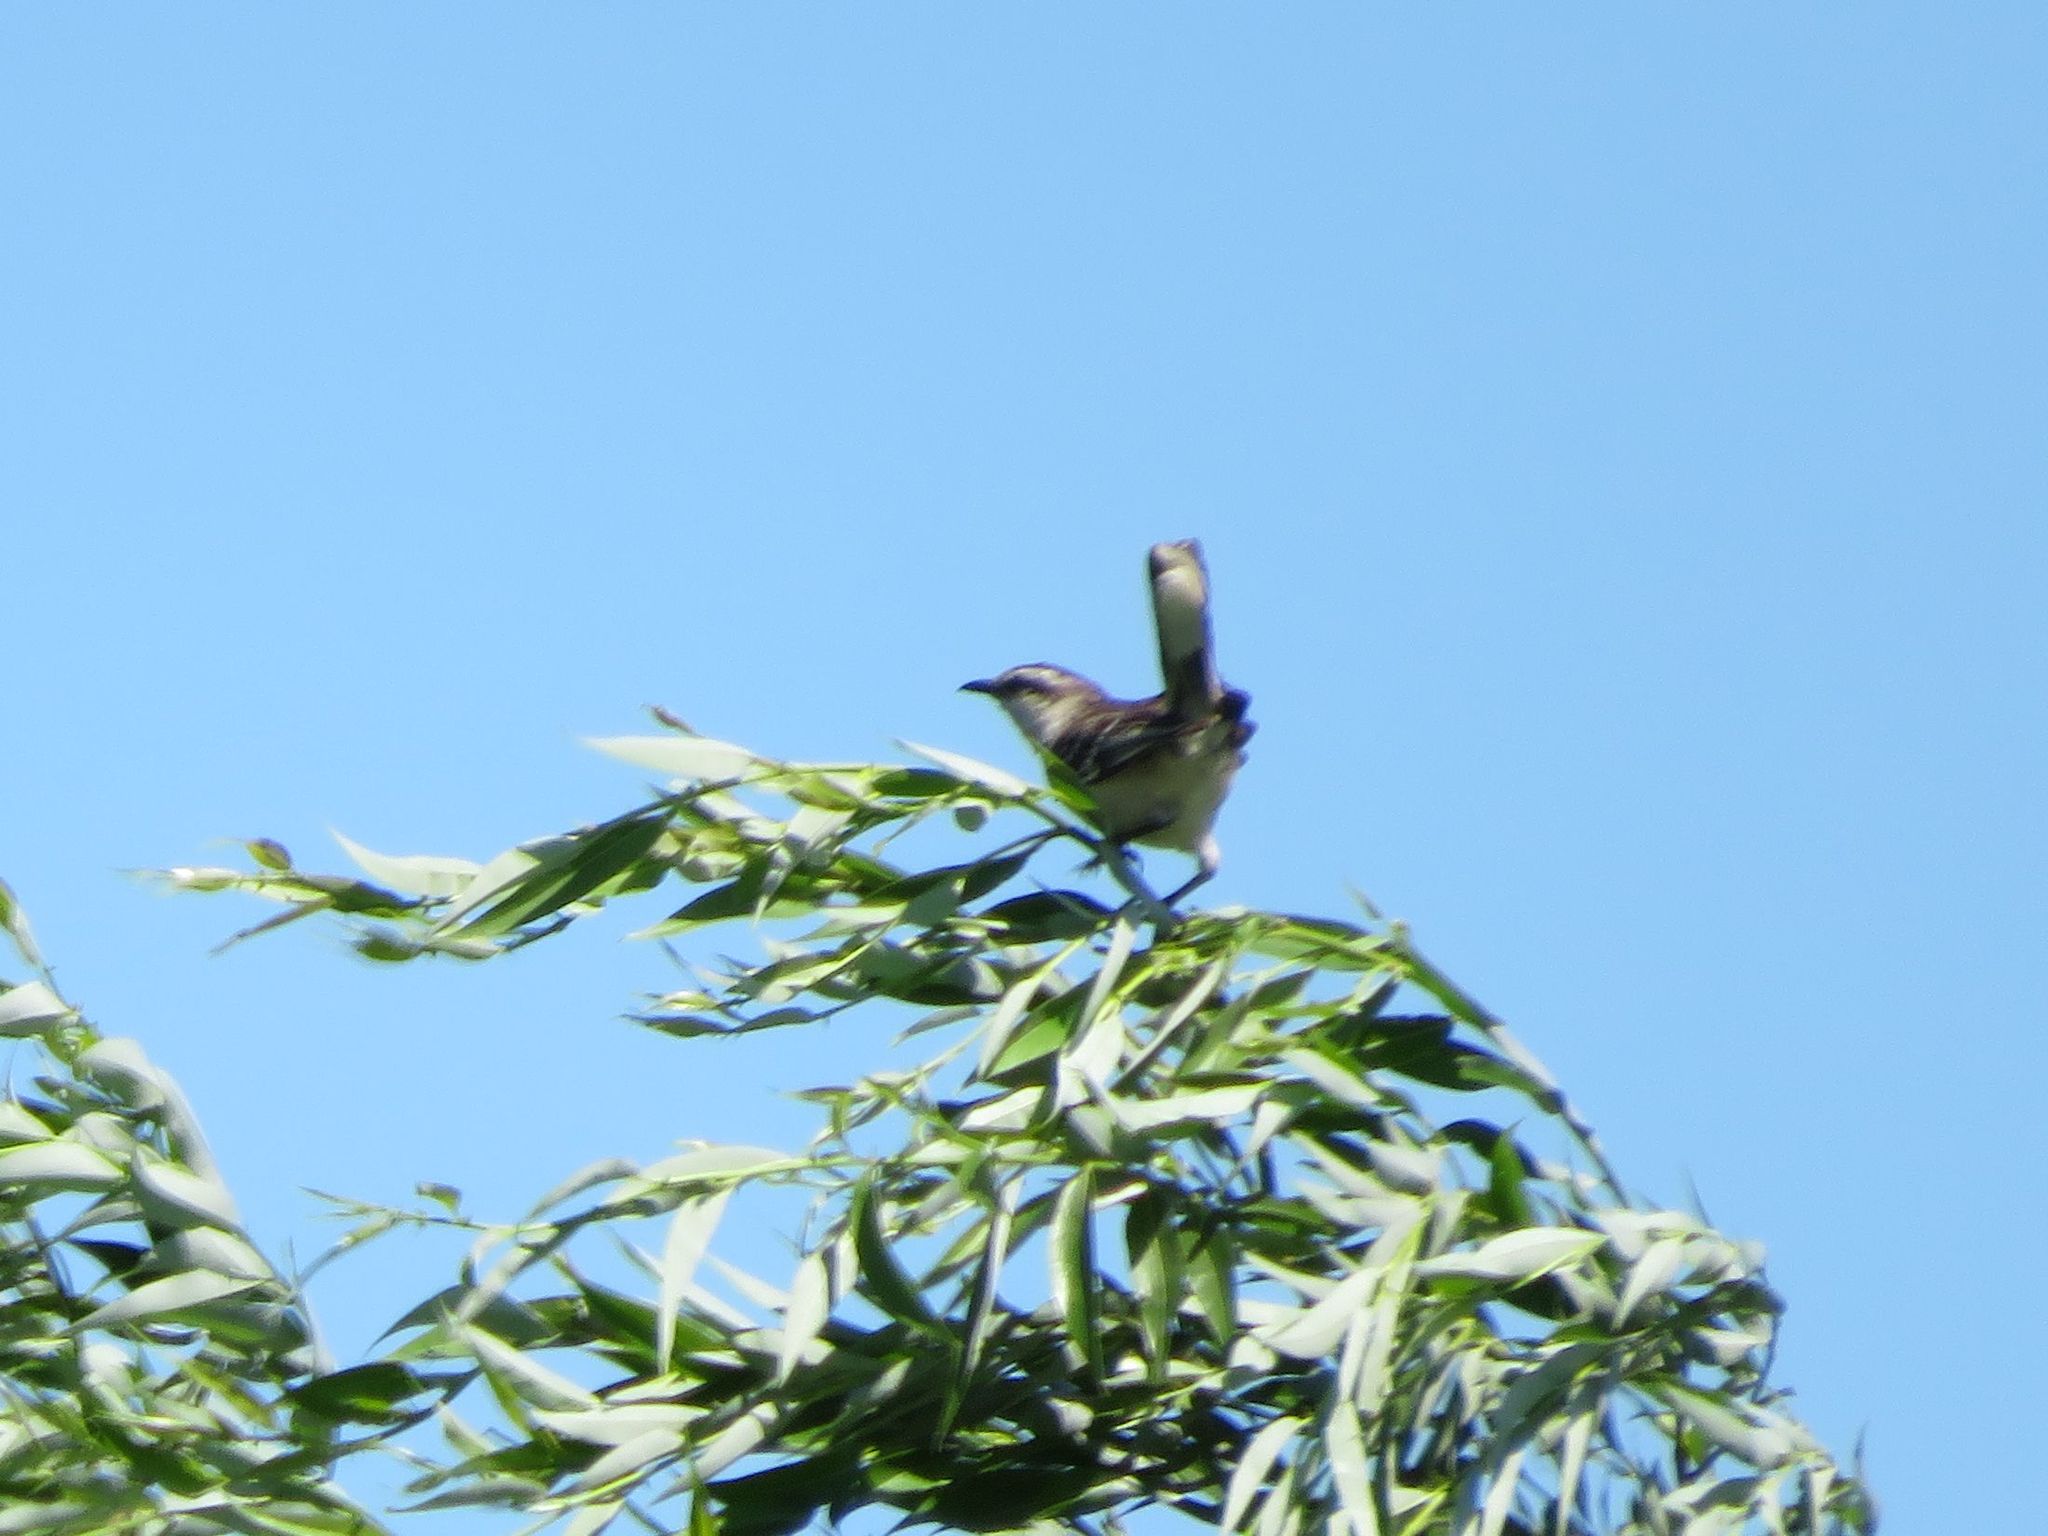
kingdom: Animalia
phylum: Chordata
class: Aves
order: Passeriformes
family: Mimidae
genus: Mimus
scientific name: Mimus saturninus
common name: Chalk-browed mockingbird
